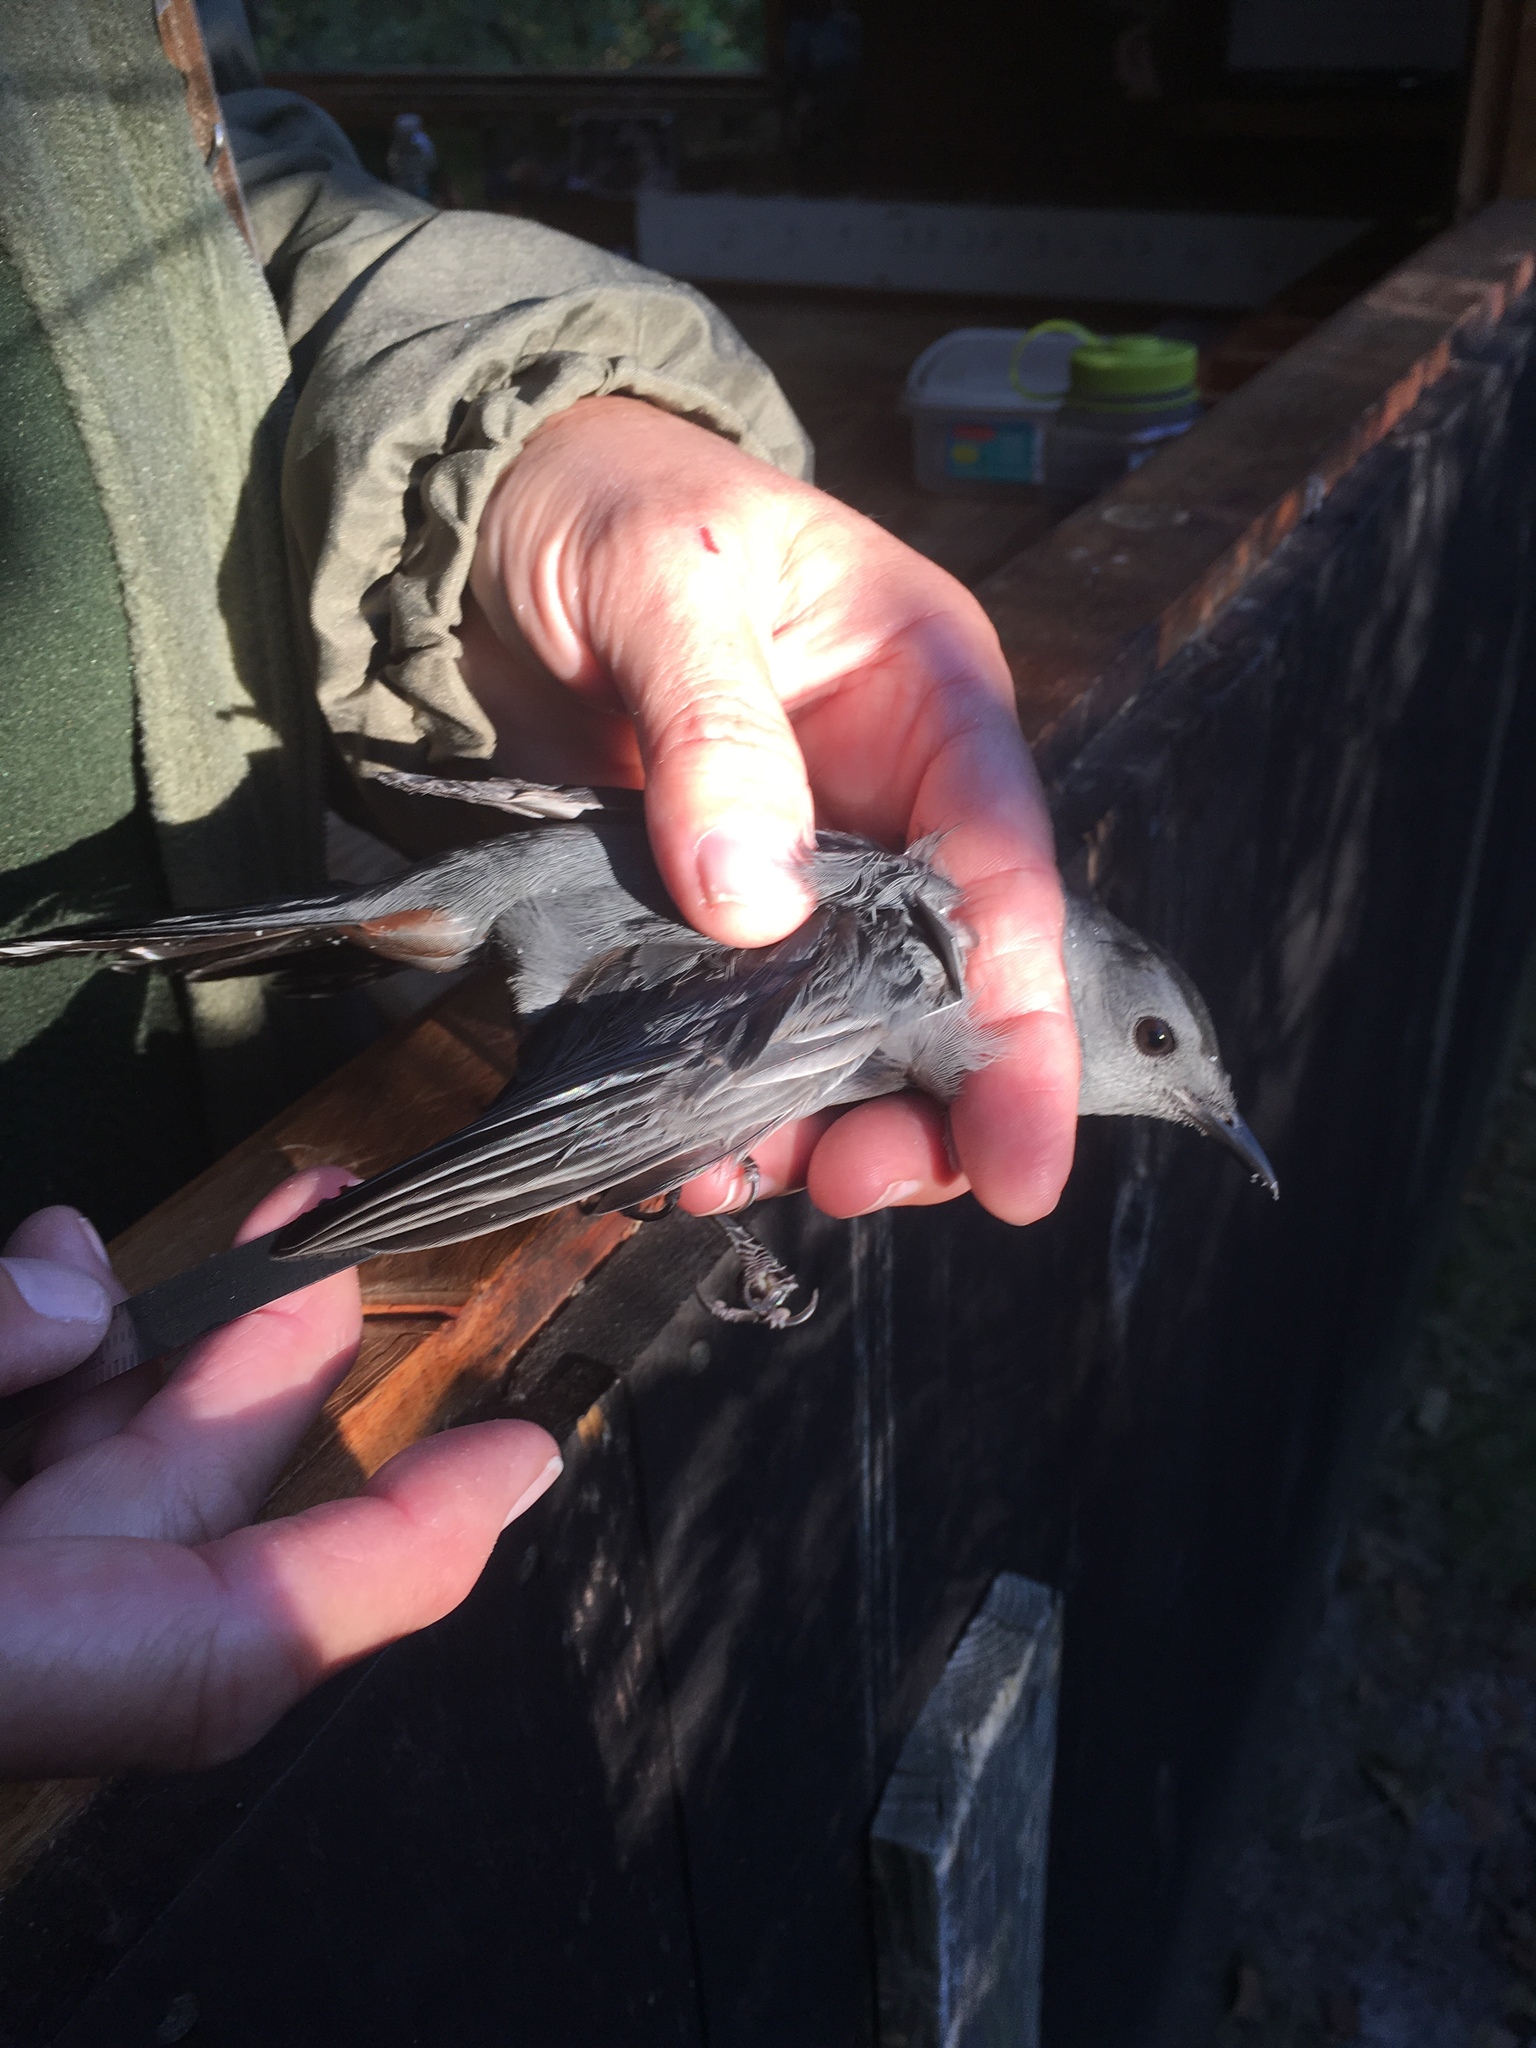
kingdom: Animalia
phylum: Chordata
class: Aves
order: Passeriformes
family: Mimidae
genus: Dumetella
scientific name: Dumetella carolinensis
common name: Gray catbird
